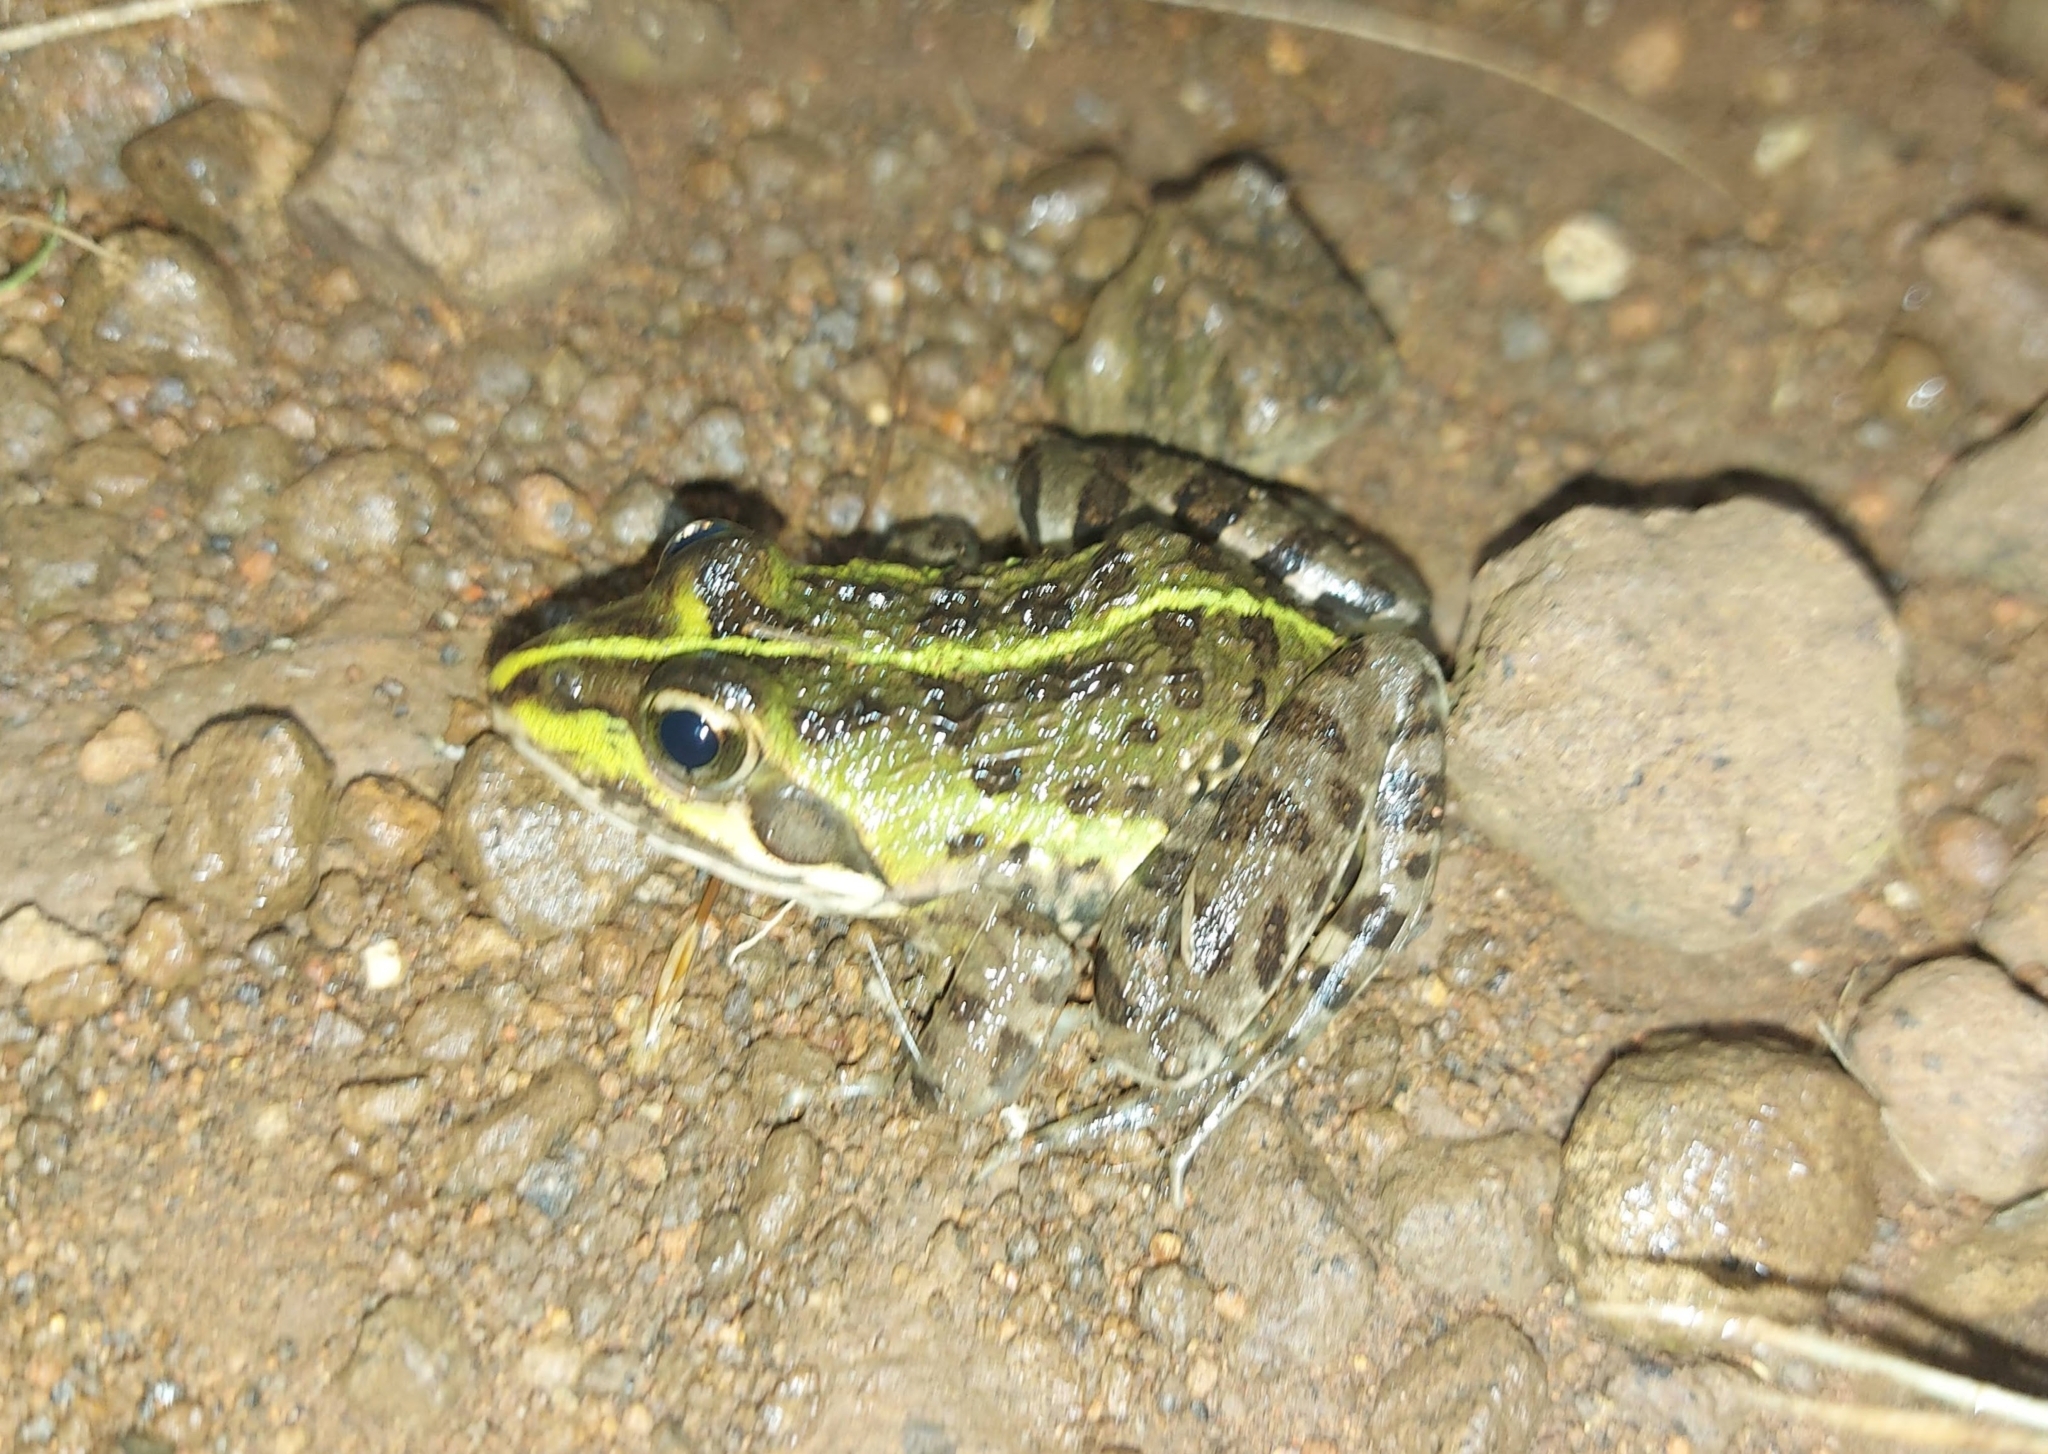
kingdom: Animalia
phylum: Chordata
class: Amphibia
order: Anura
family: Pyxicephalidae
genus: Amietia
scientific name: Amietia poyntoni
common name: Poynton's river frog
